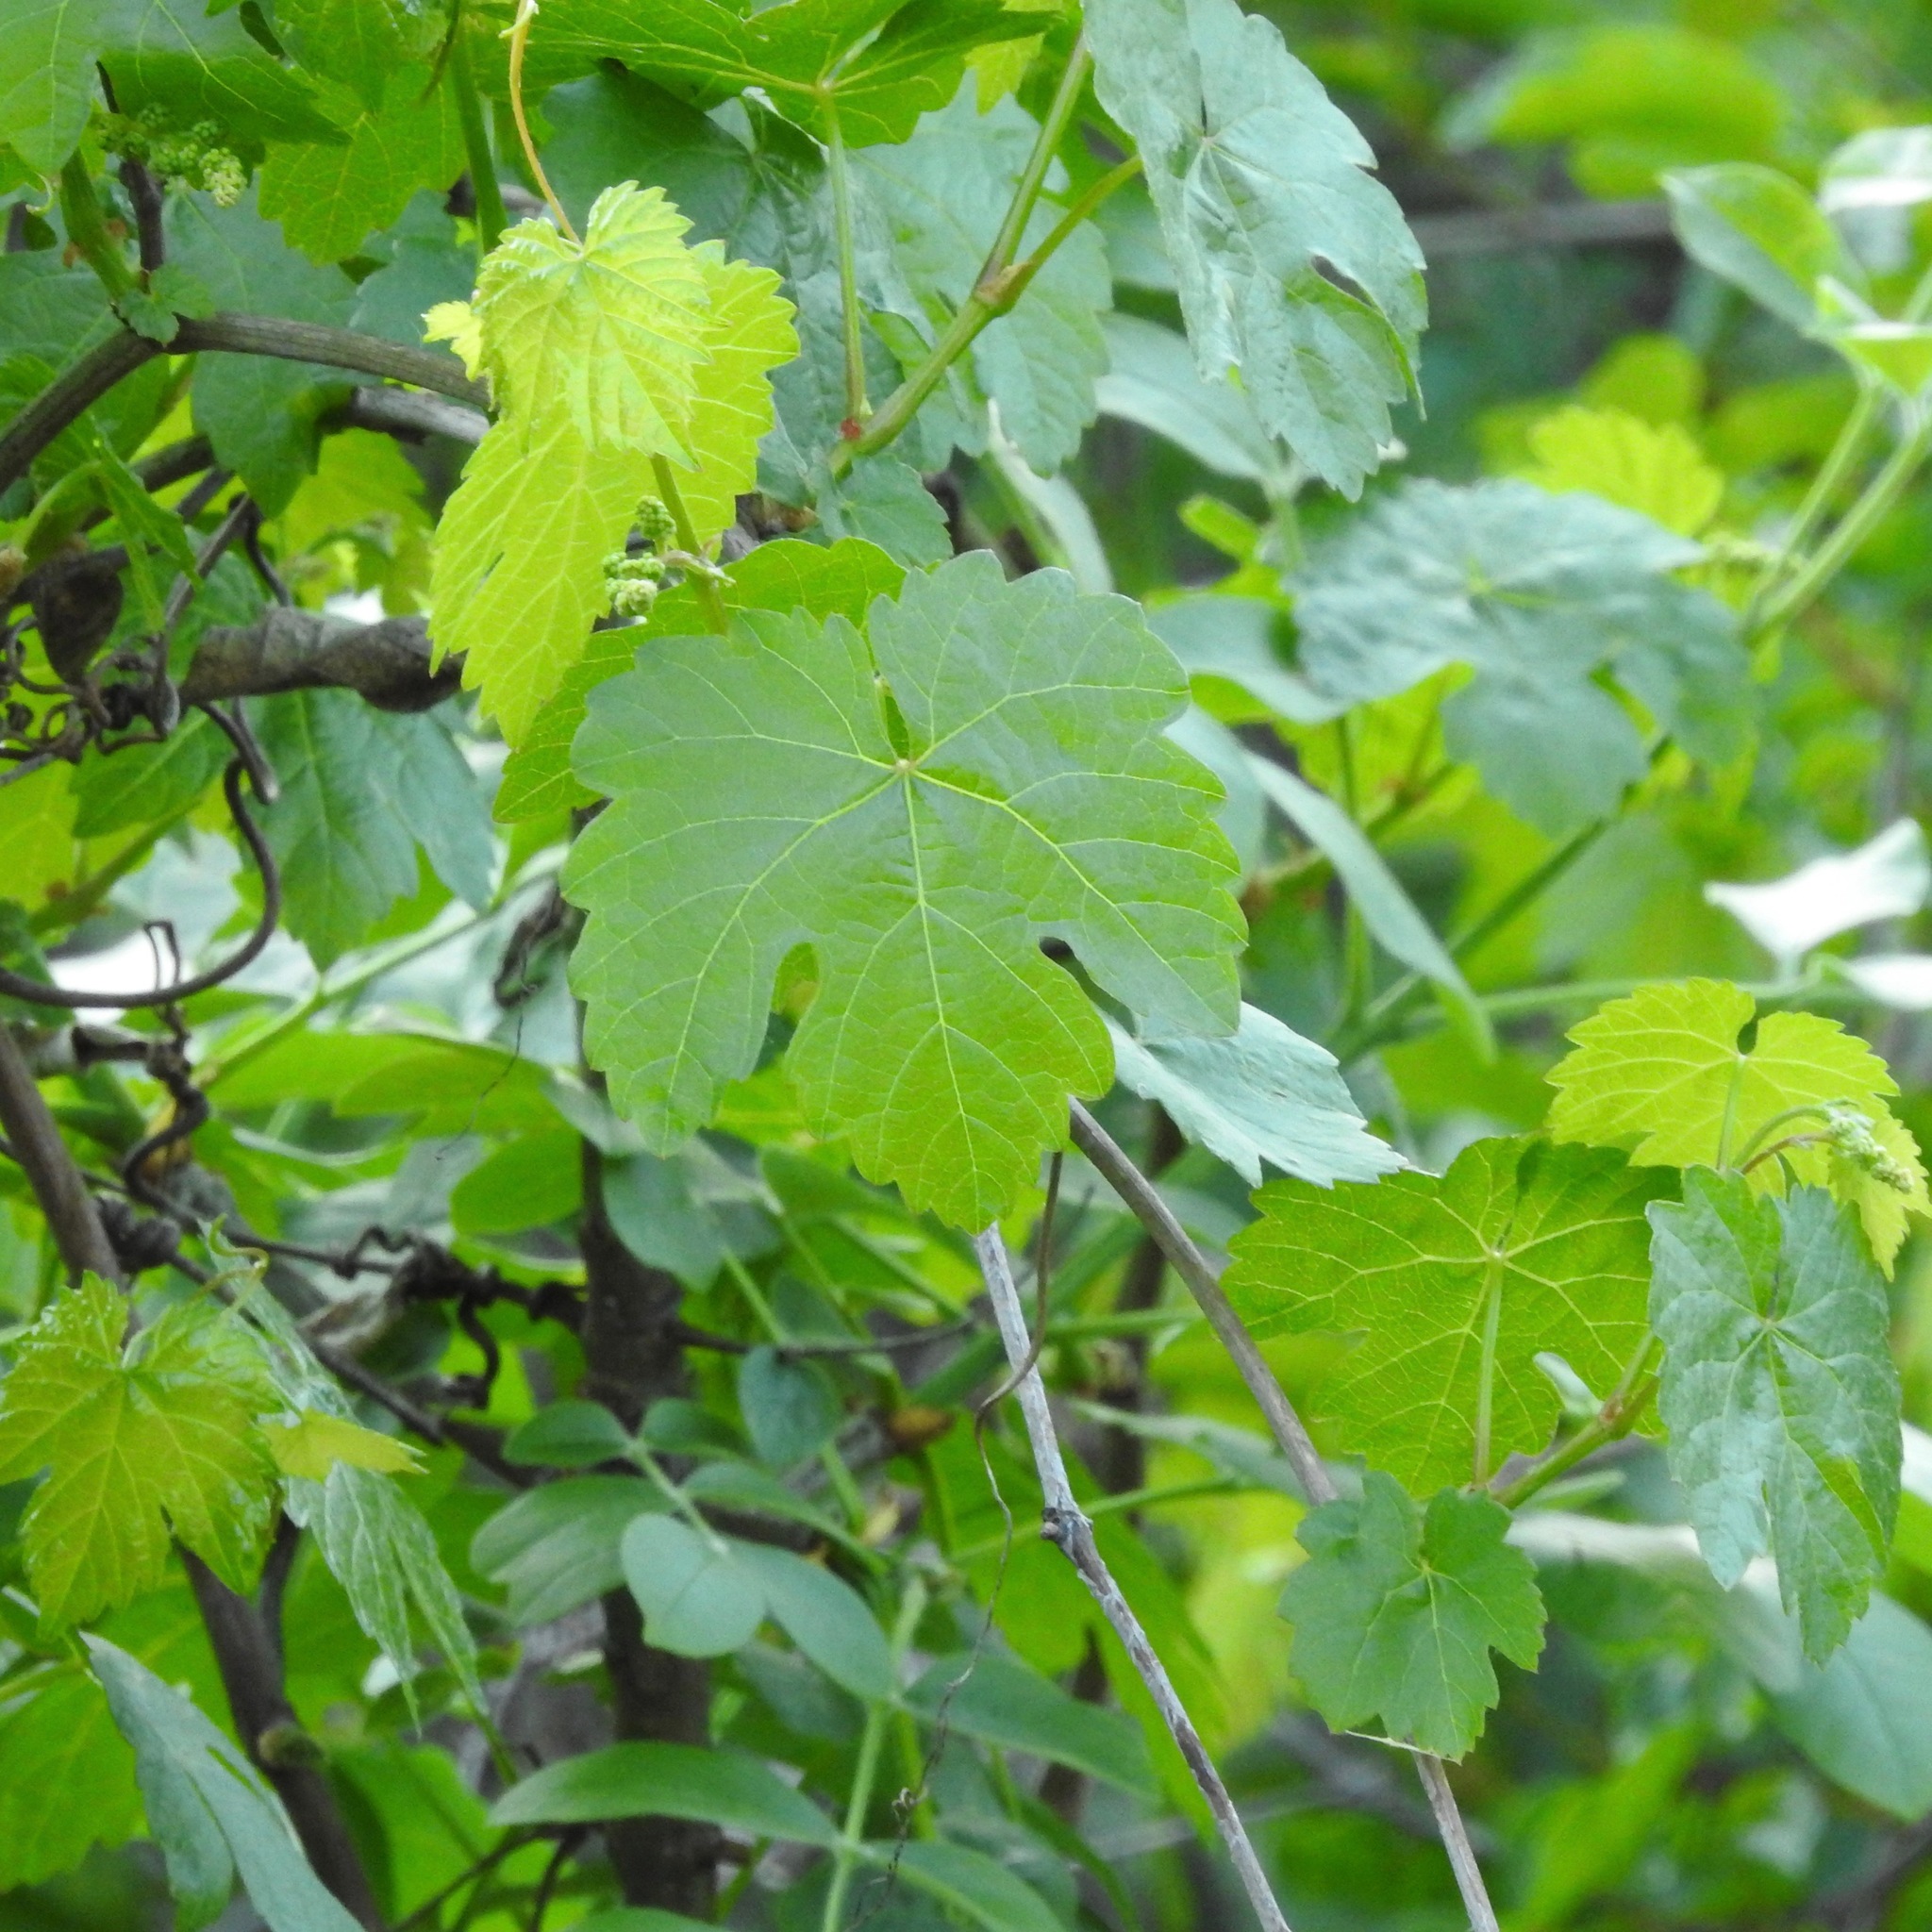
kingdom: Plantae
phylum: Tracheophyta
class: Magnoliopsida
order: Vitales
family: Vitaceae
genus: Vitis
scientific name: Vitis californica
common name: California wild grape
